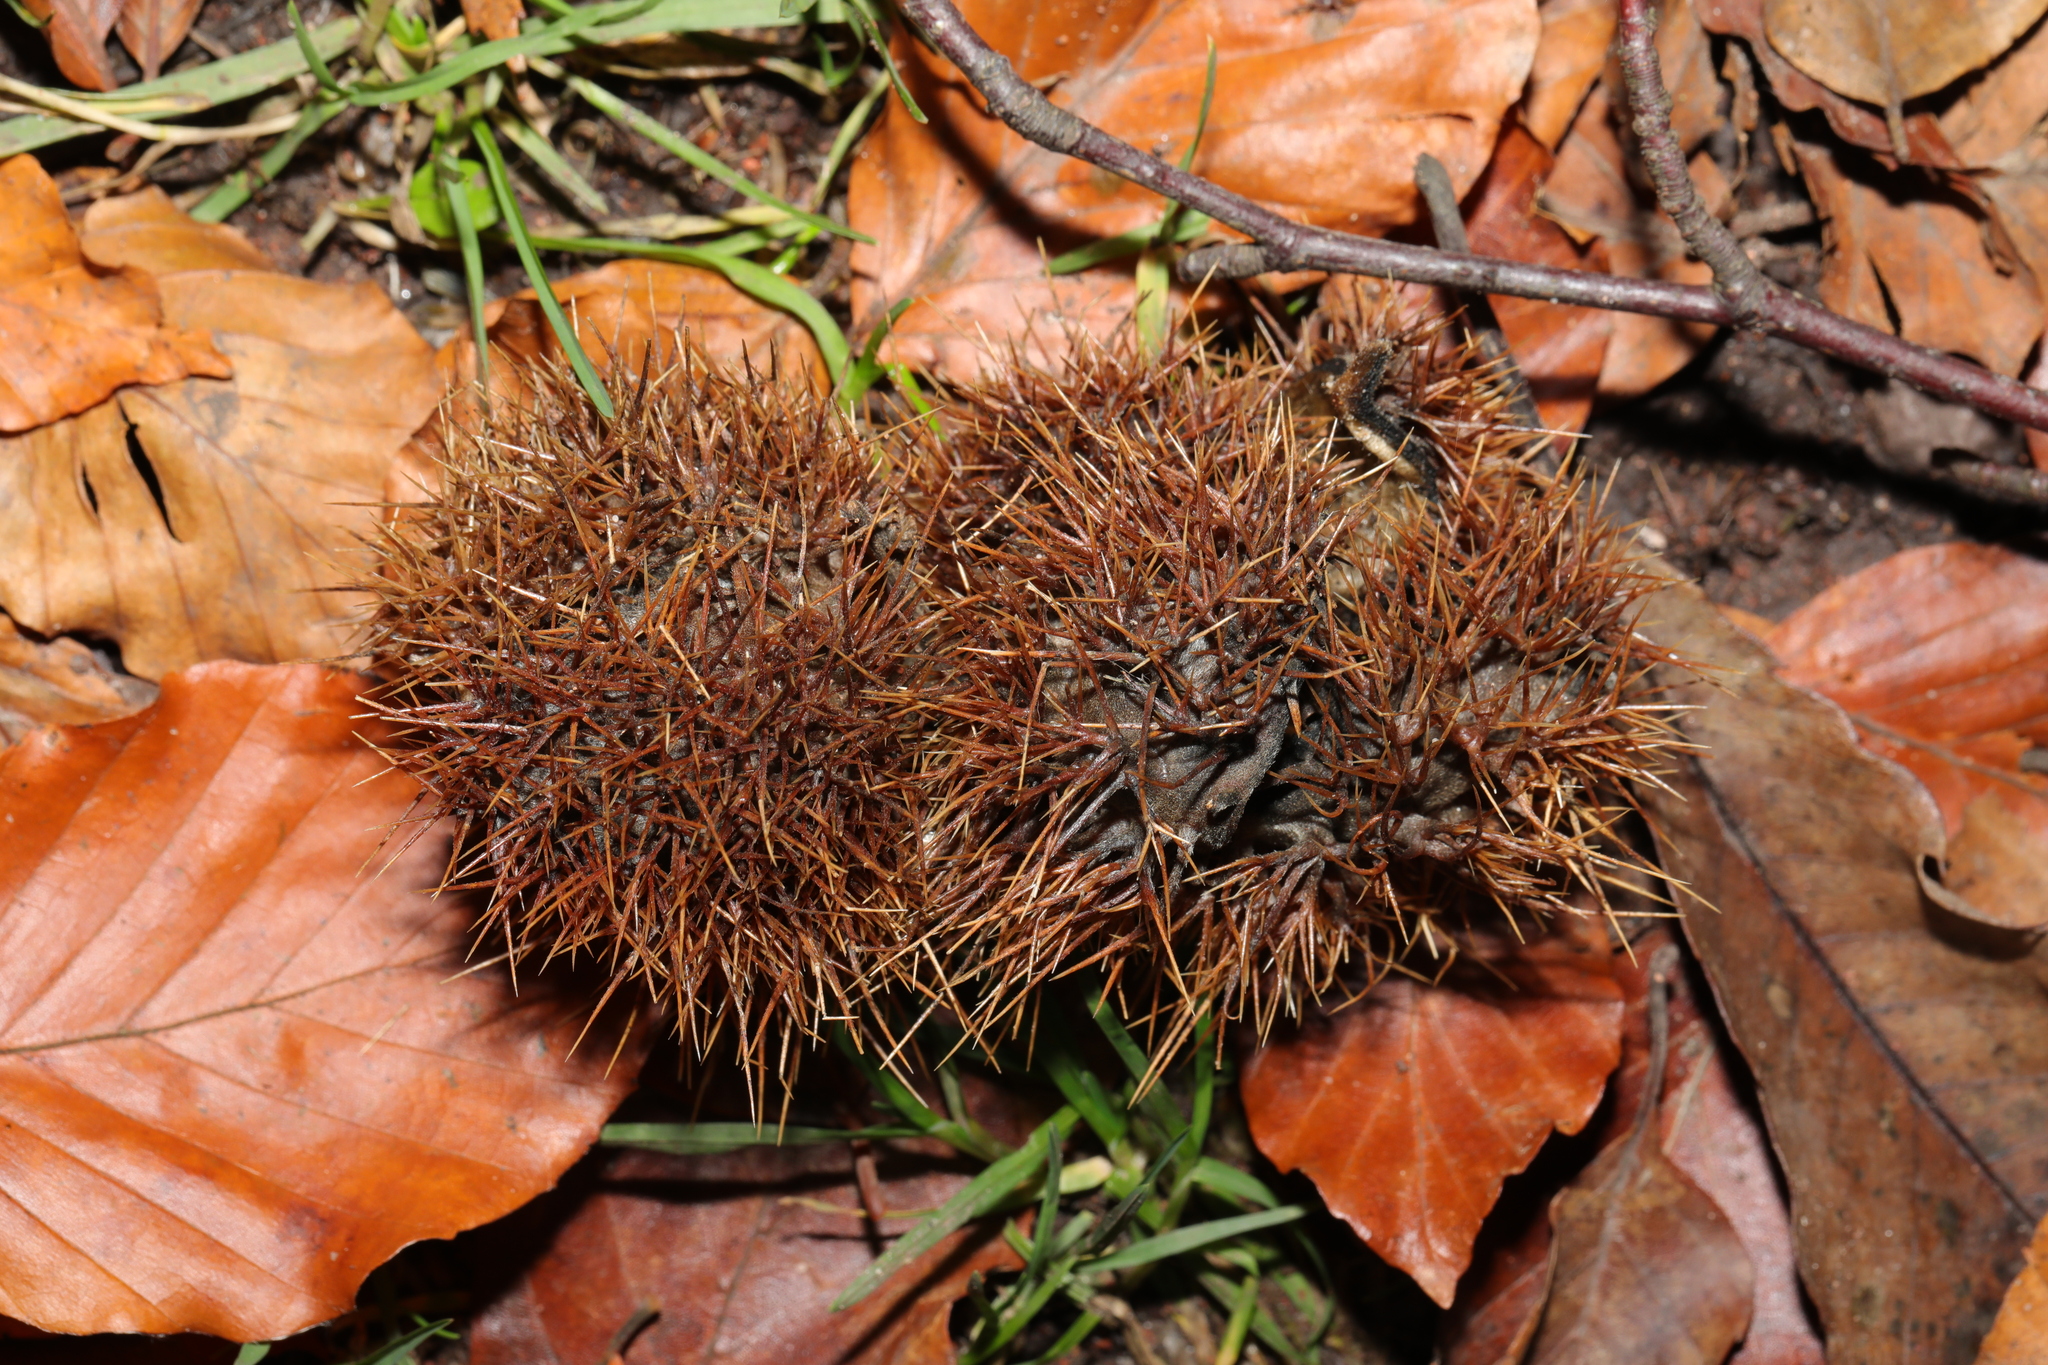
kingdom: Plantae
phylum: Tracheophyta
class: Magnoliopsida
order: Fagales
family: Fagaceae
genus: Castanea
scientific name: Castanea sativa
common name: Sweet chestnut
